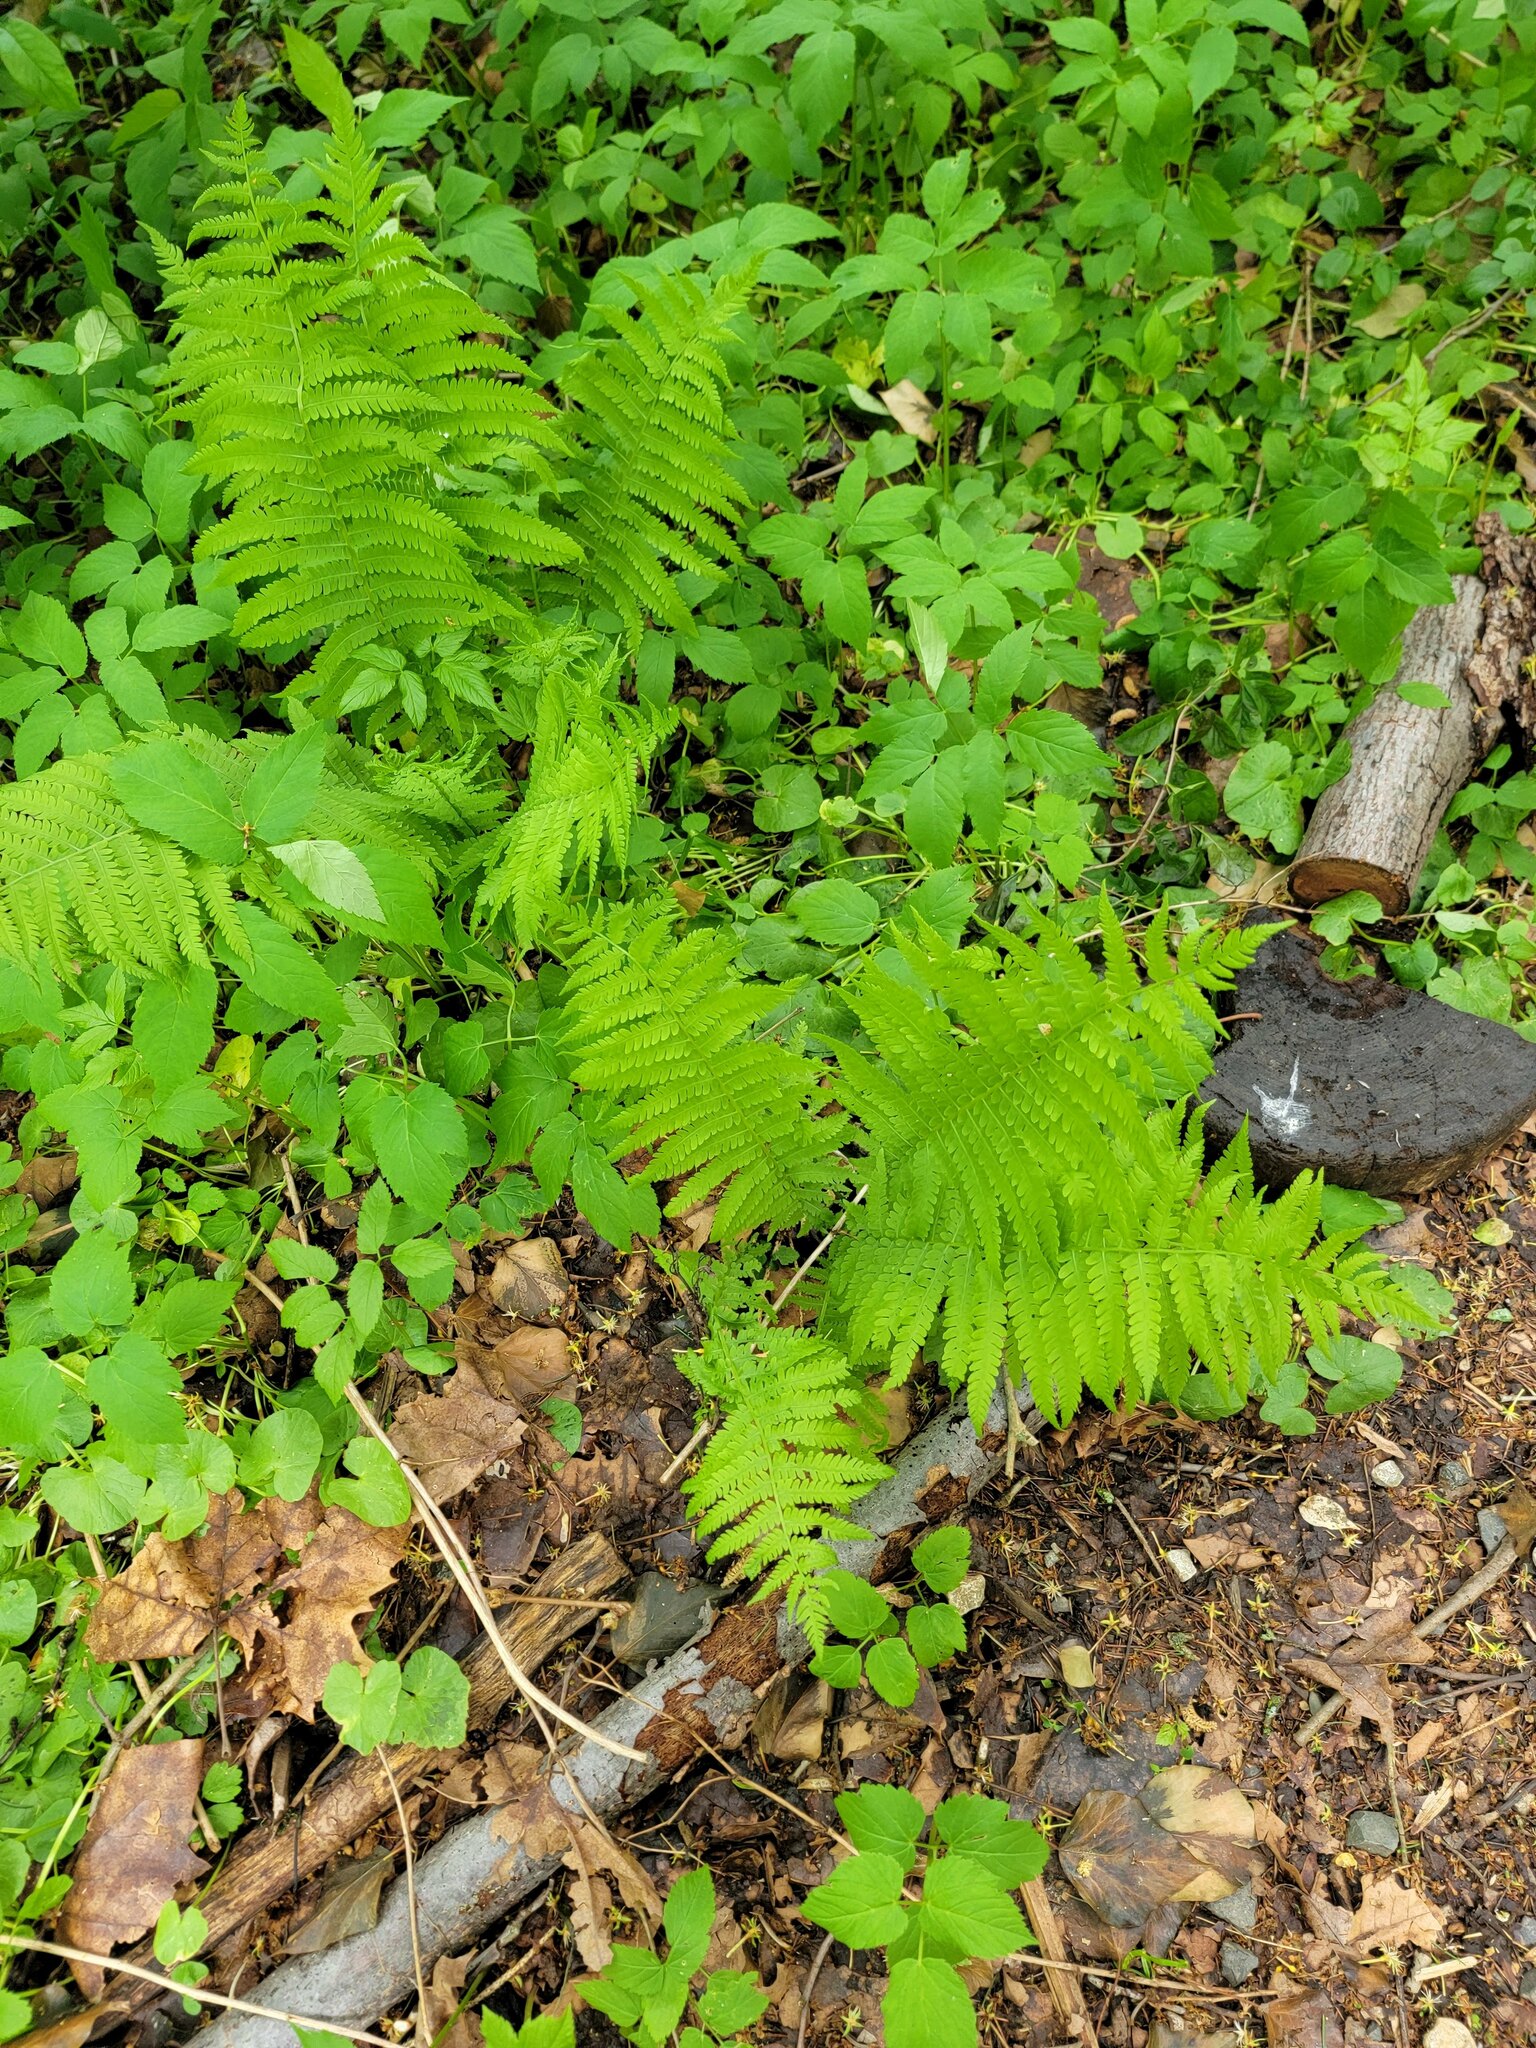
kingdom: Plantae
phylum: Tracheophyta
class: Polypodiopsida
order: Polypodiales
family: Thelypteridaceae
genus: Amauropelta
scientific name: Amauropelta noveboracensis
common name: New york fern
